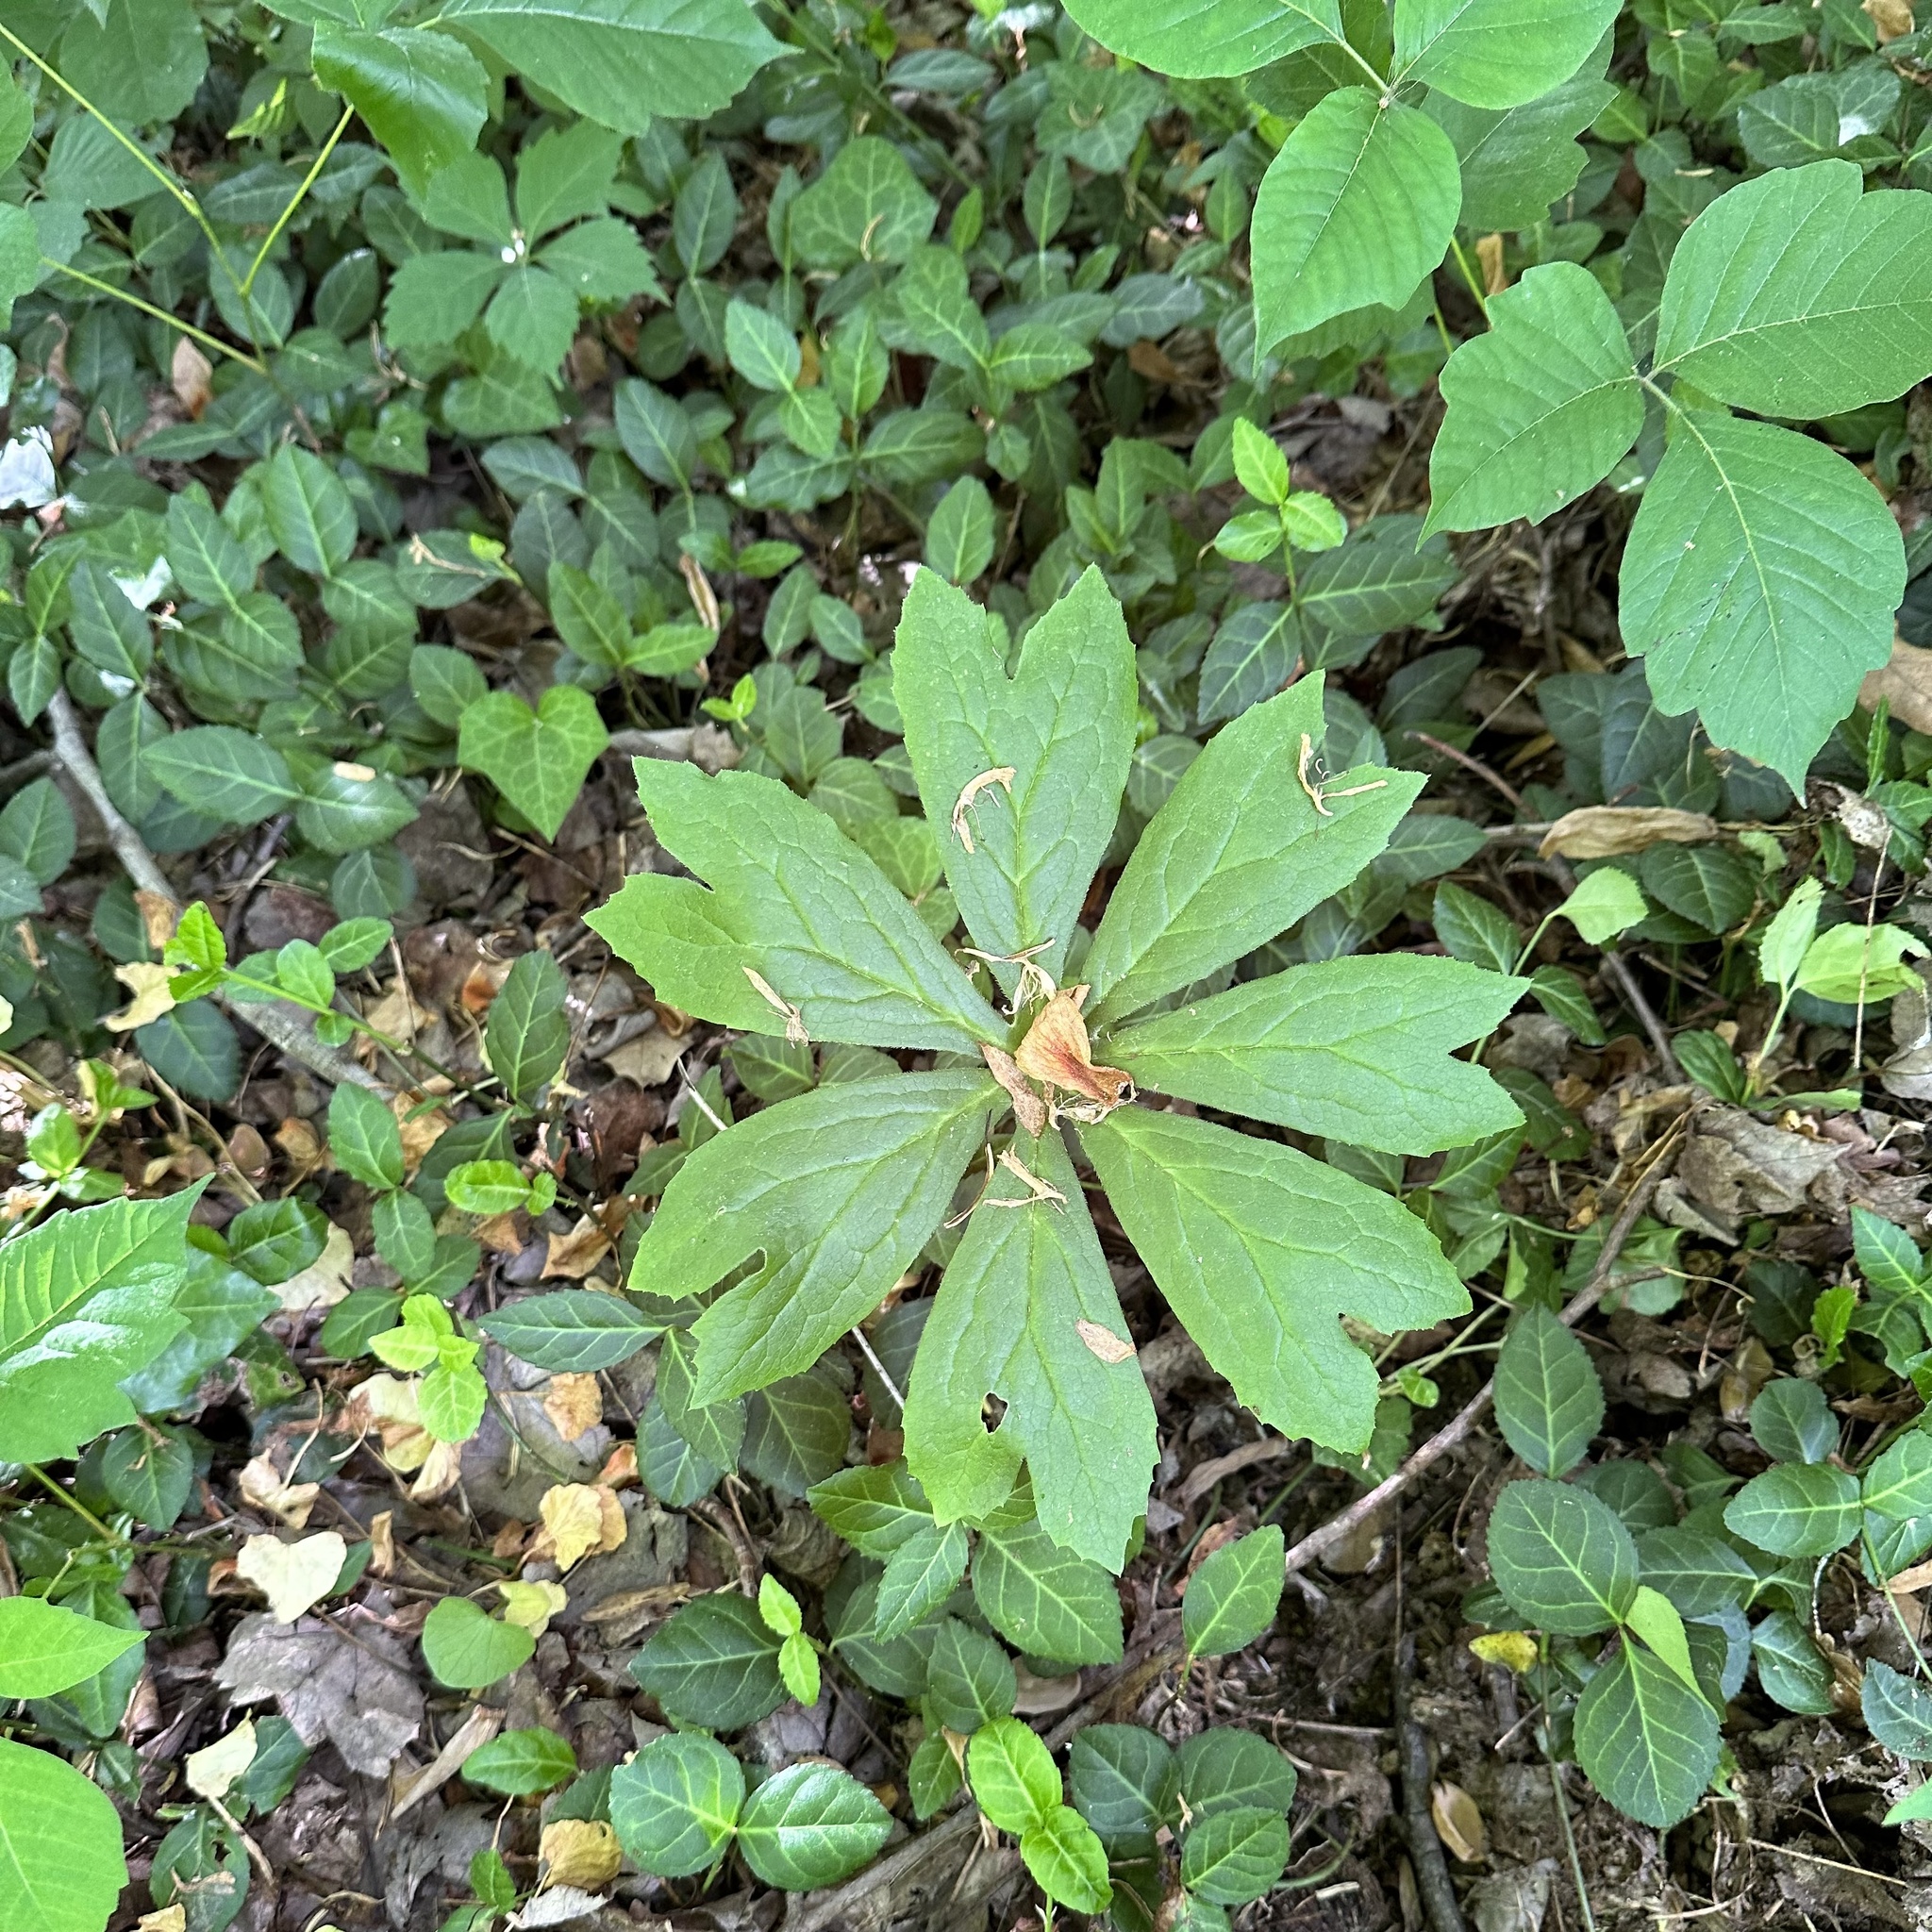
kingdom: Plantae
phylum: Tracheophyta
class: Magnoliopsida
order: Ranunculales
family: Berberidaceae
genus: Podophyllum
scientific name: Podophyllum peltatum
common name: Wild mandrake
